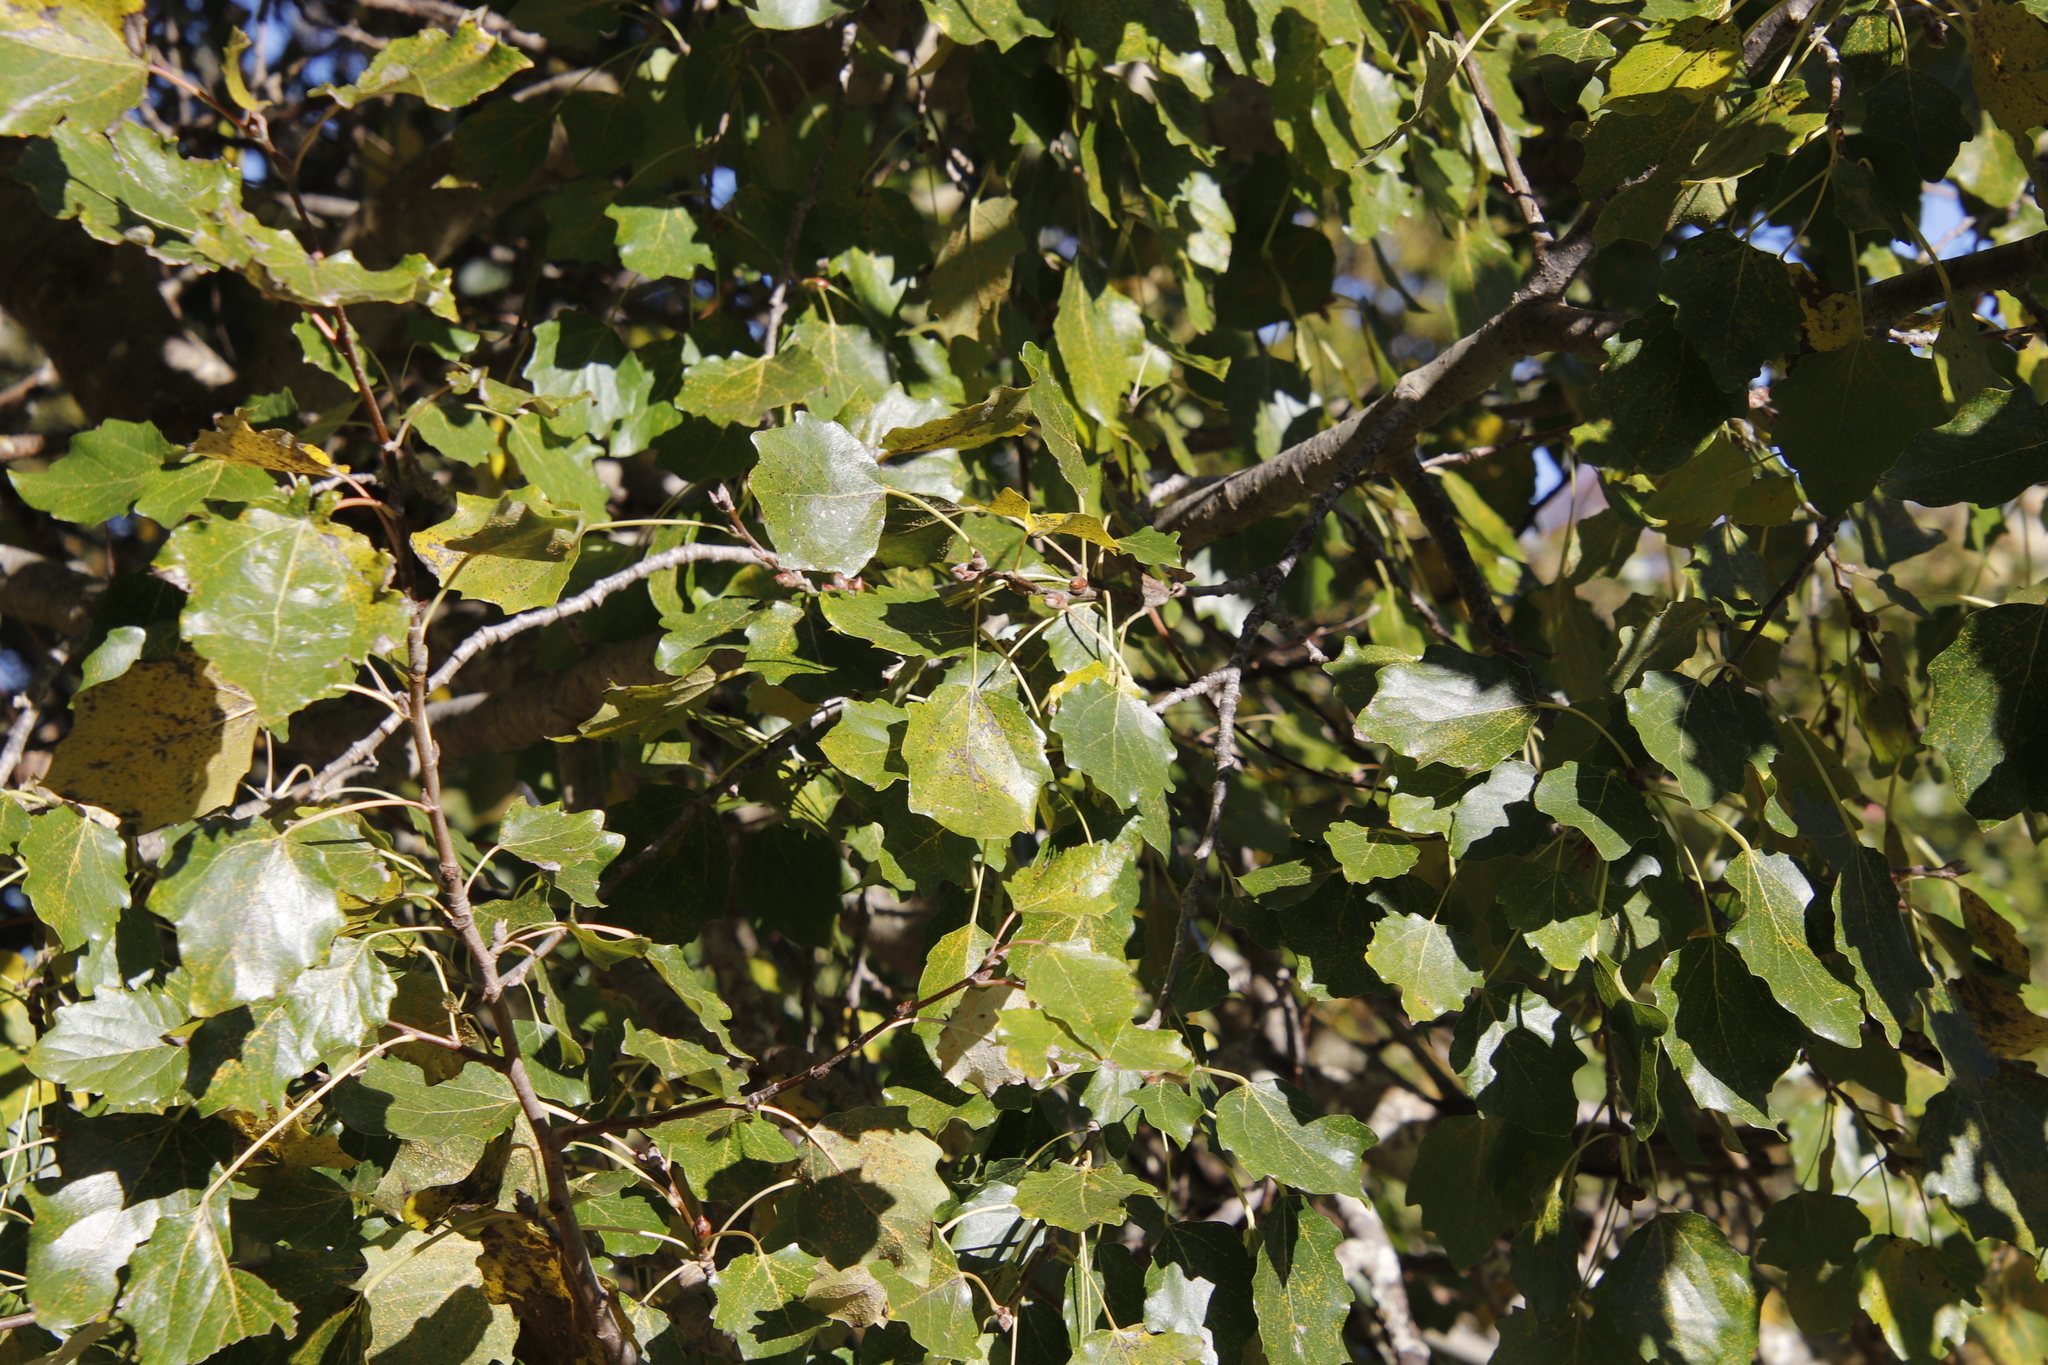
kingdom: Plantae
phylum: Tracheophyta
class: Magnoliopsida
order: Malpighiales
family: Salicaceae
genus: Populus
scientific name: Populus canescens
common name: Gray poplar
